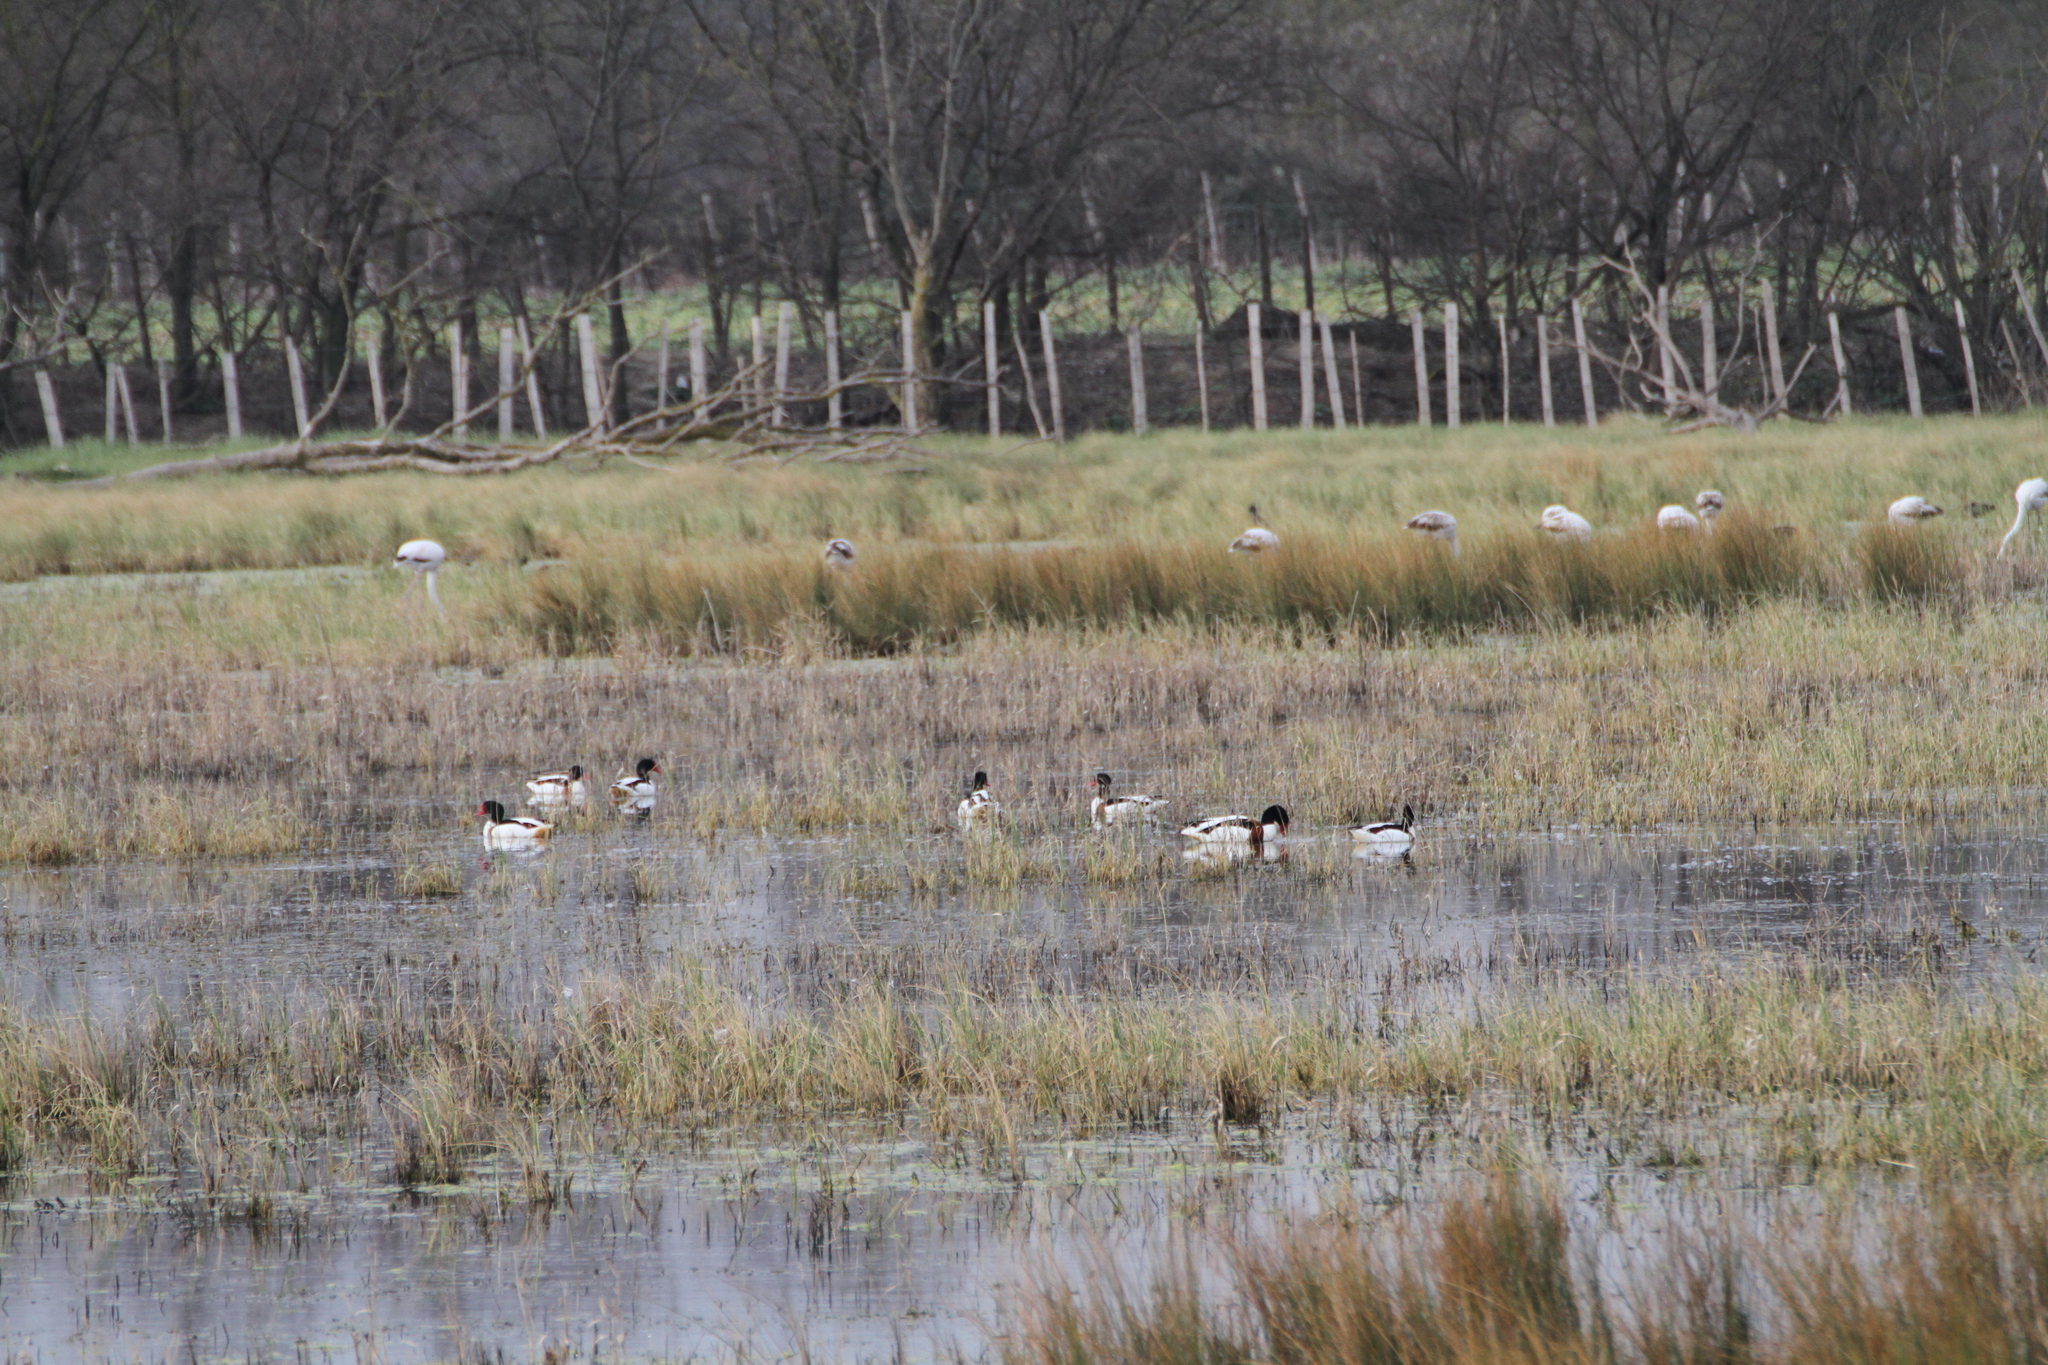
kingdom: Animalia
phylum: Chordata
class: Aves
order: Anseriformes
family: Anatidae
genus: Tadorna
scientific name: Tadorna tadorna
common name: Common shelduck
